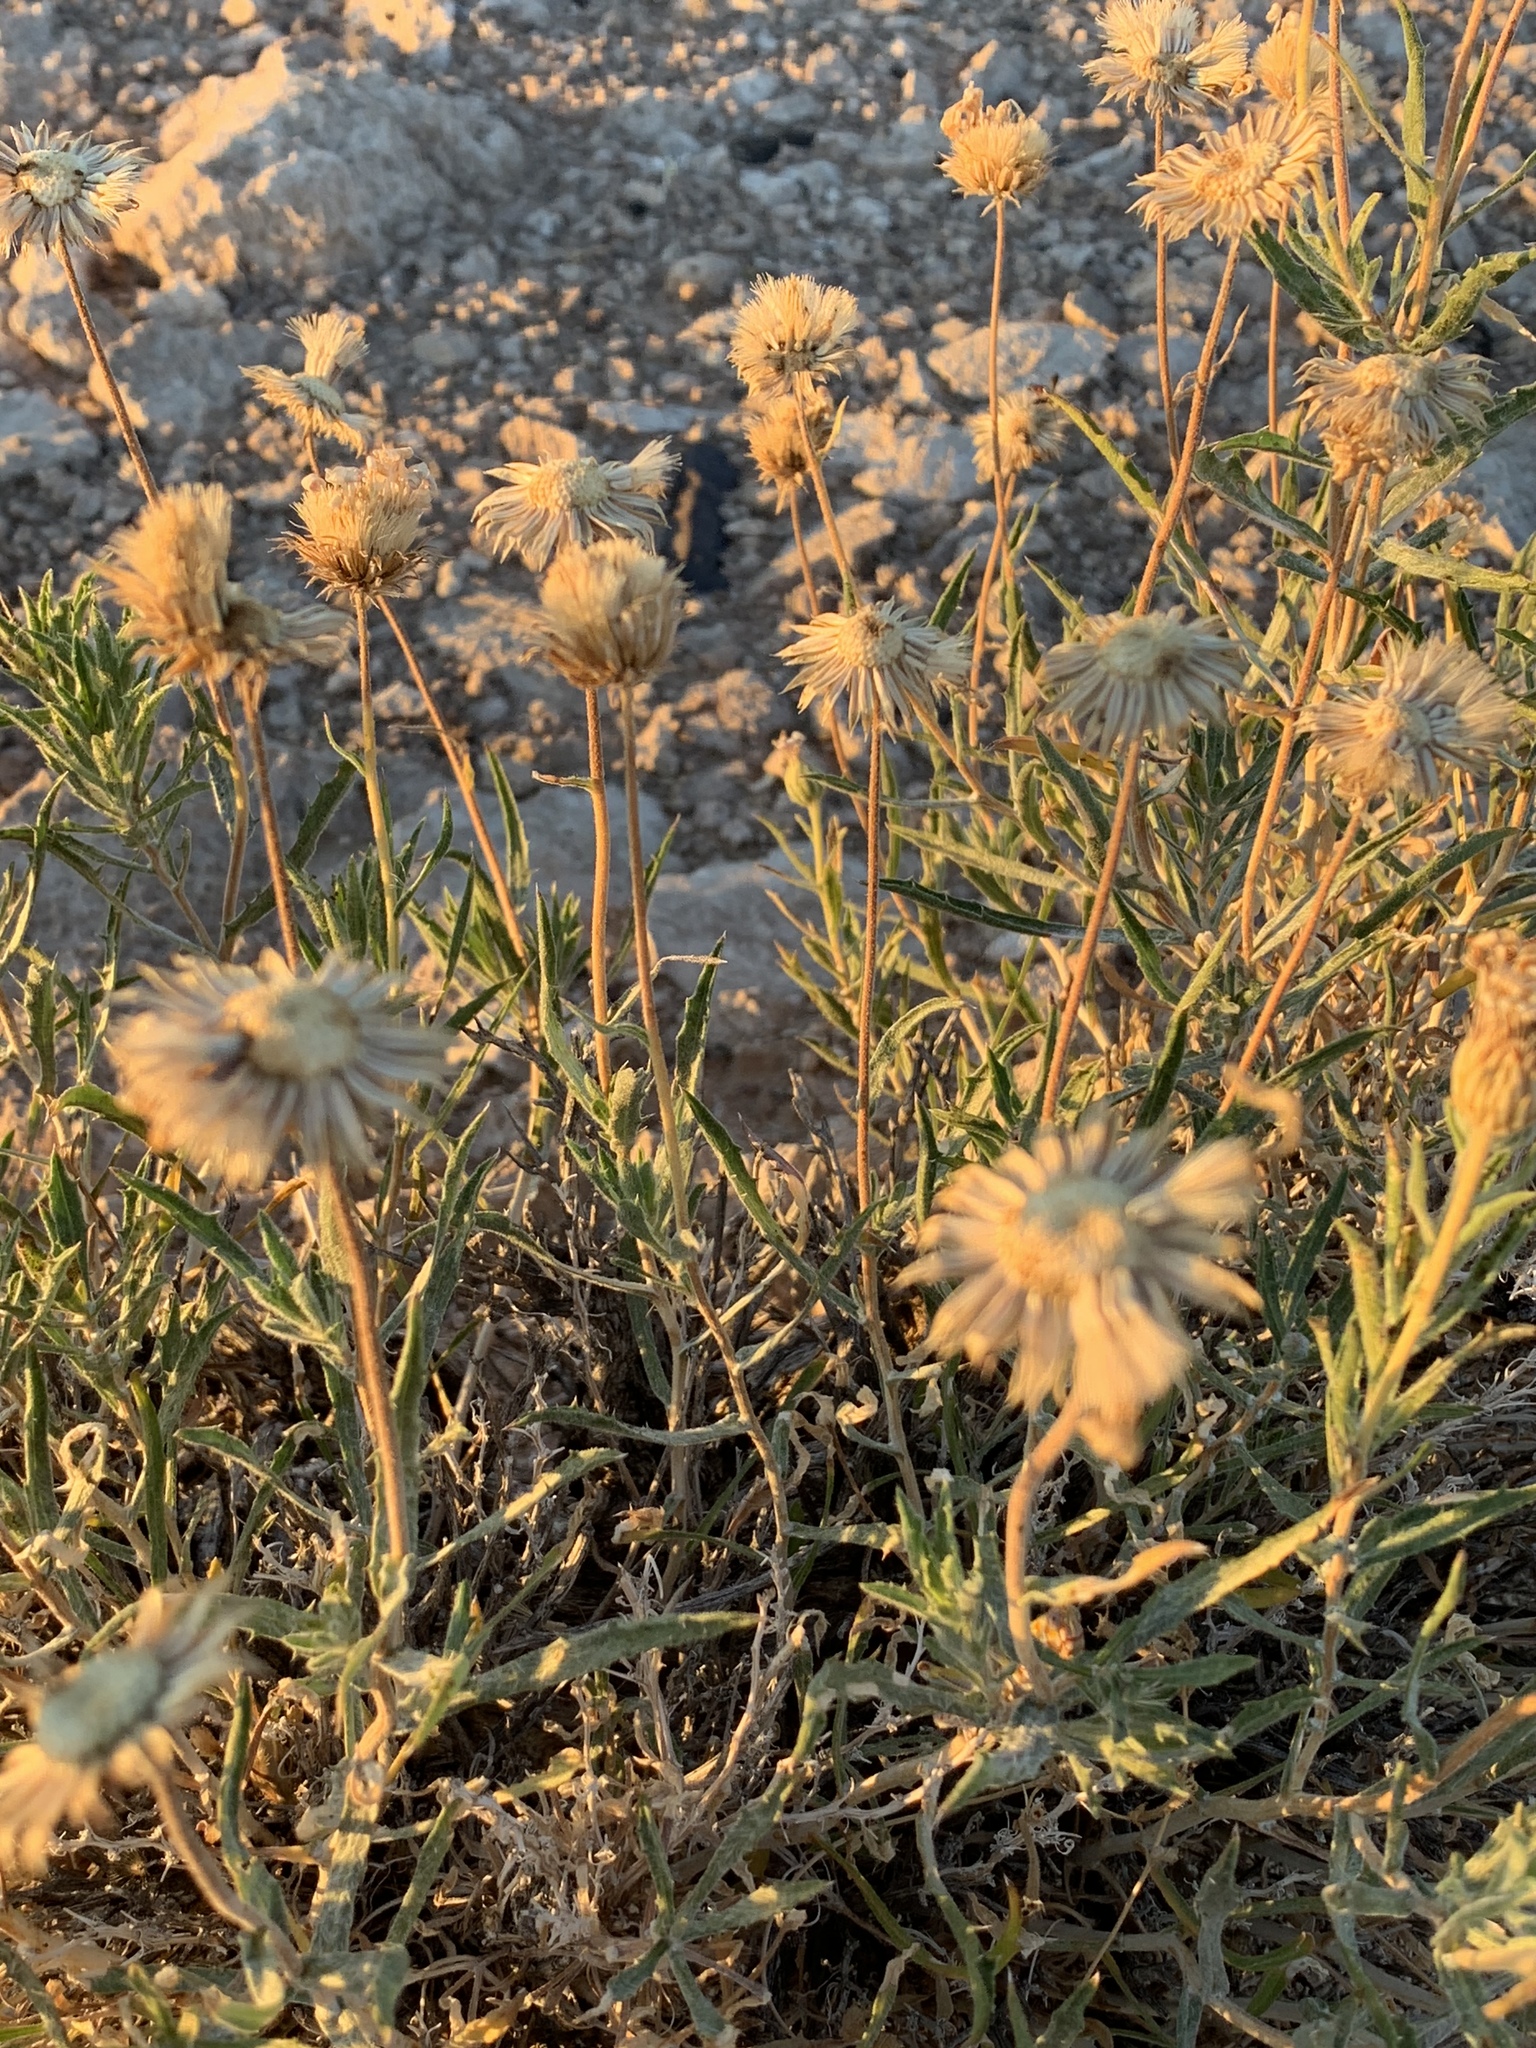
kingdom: Plantae
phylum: Tracheophyta
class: Magnoliopsida
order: Asterales
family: Asteraceae
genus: Xylorhiza
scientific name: Xylorhiza tortifolia
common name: Hurt-leaf woody-aster
